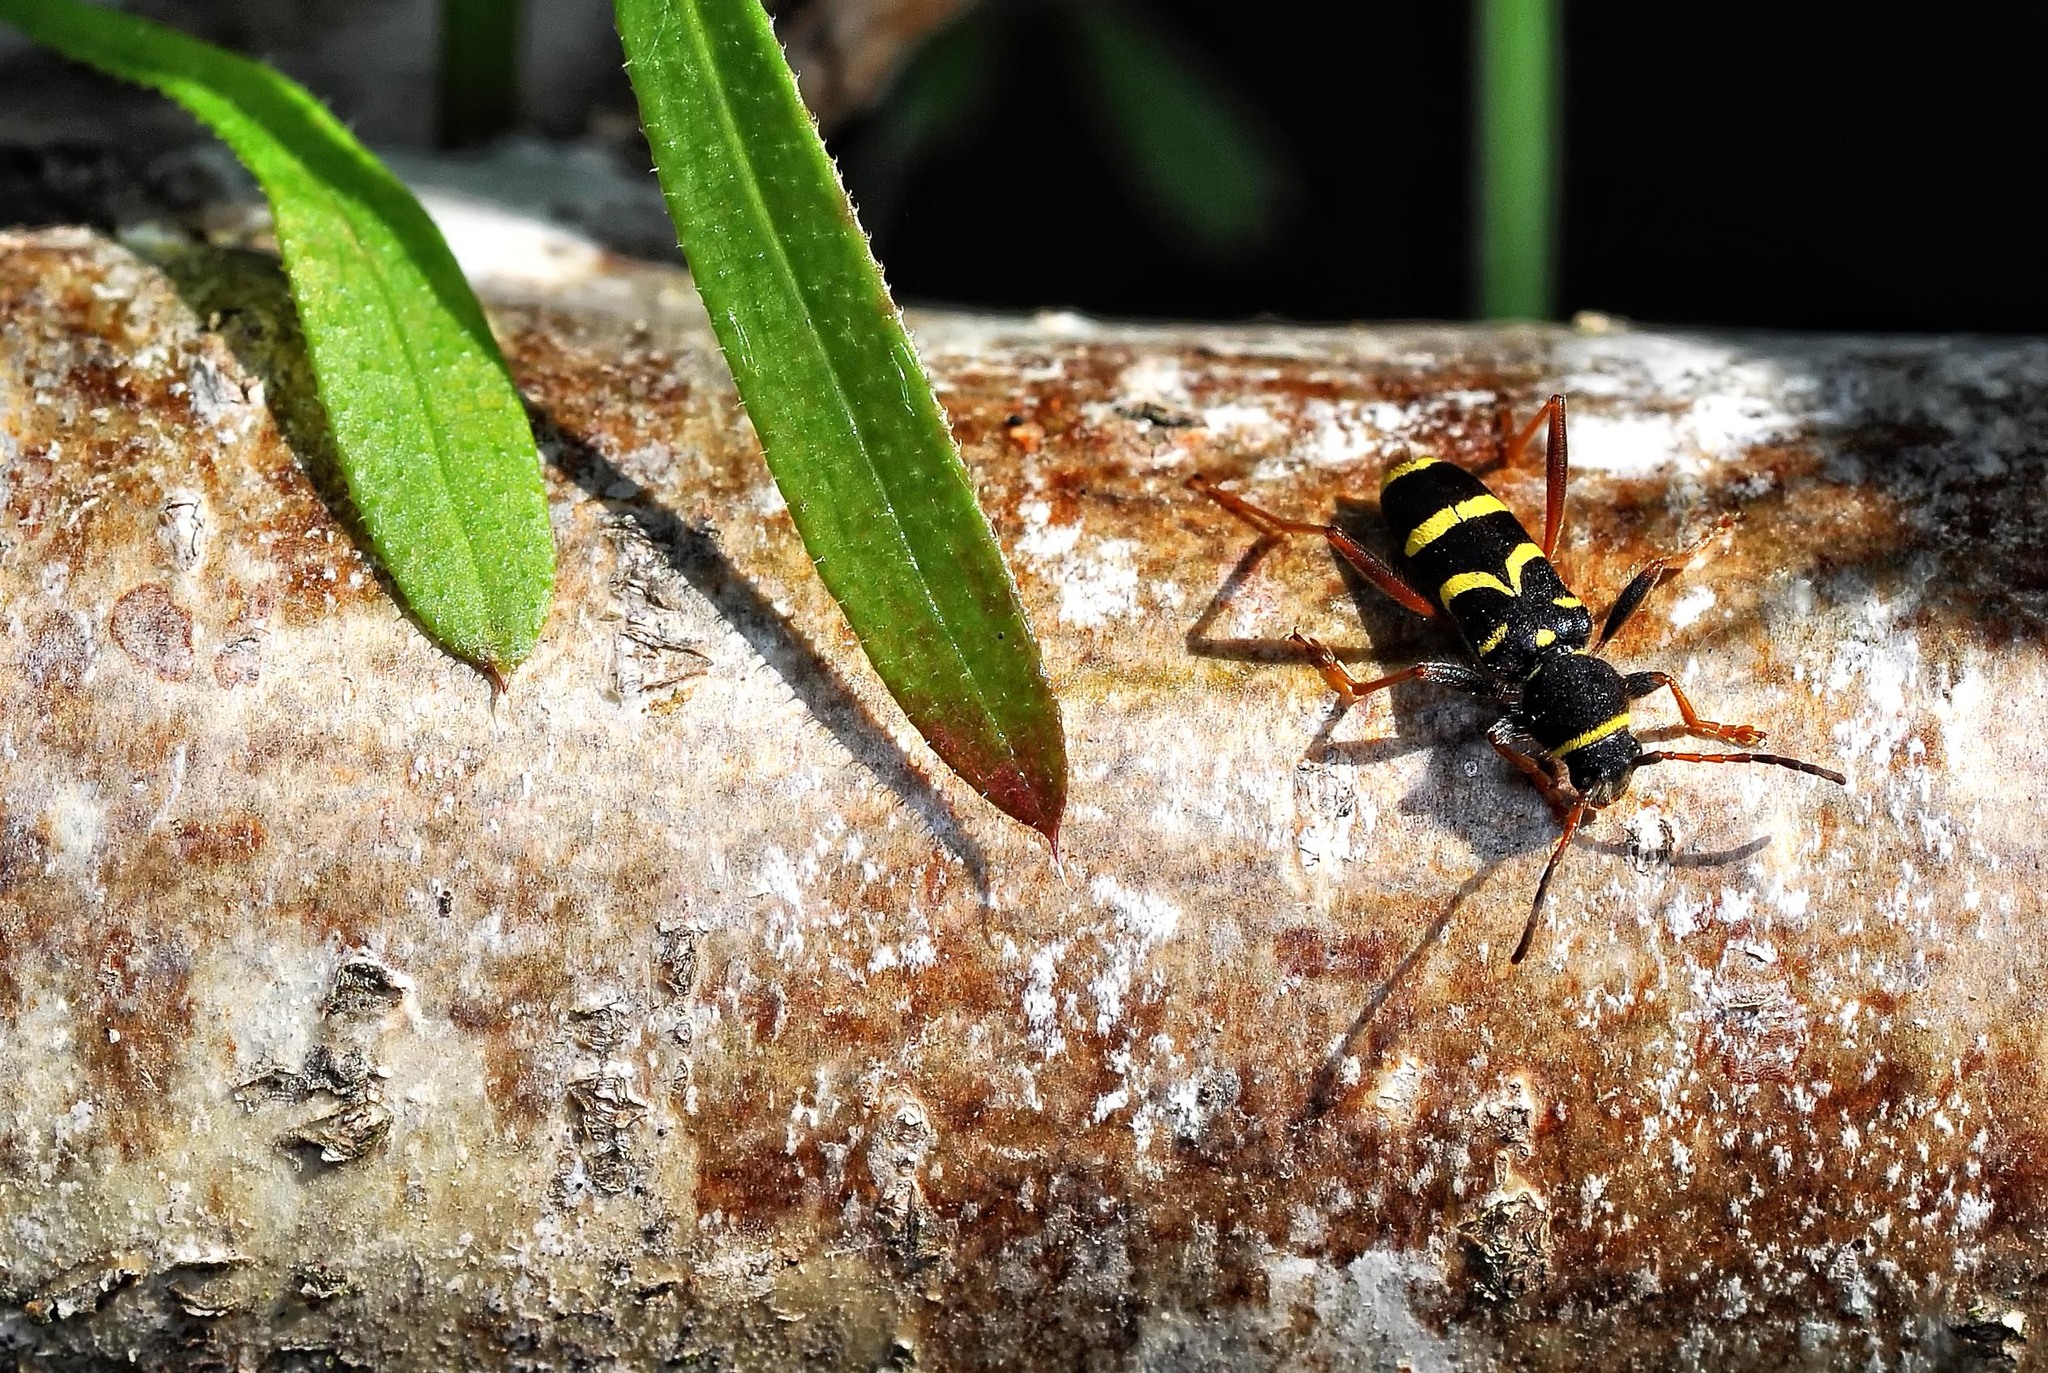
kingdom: Animalia
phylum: Arthropoda
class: Insecta
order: Coleoptera
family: Cerambycidae
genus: Clytus
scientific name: Clytus arietis
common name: Wasp beetle
